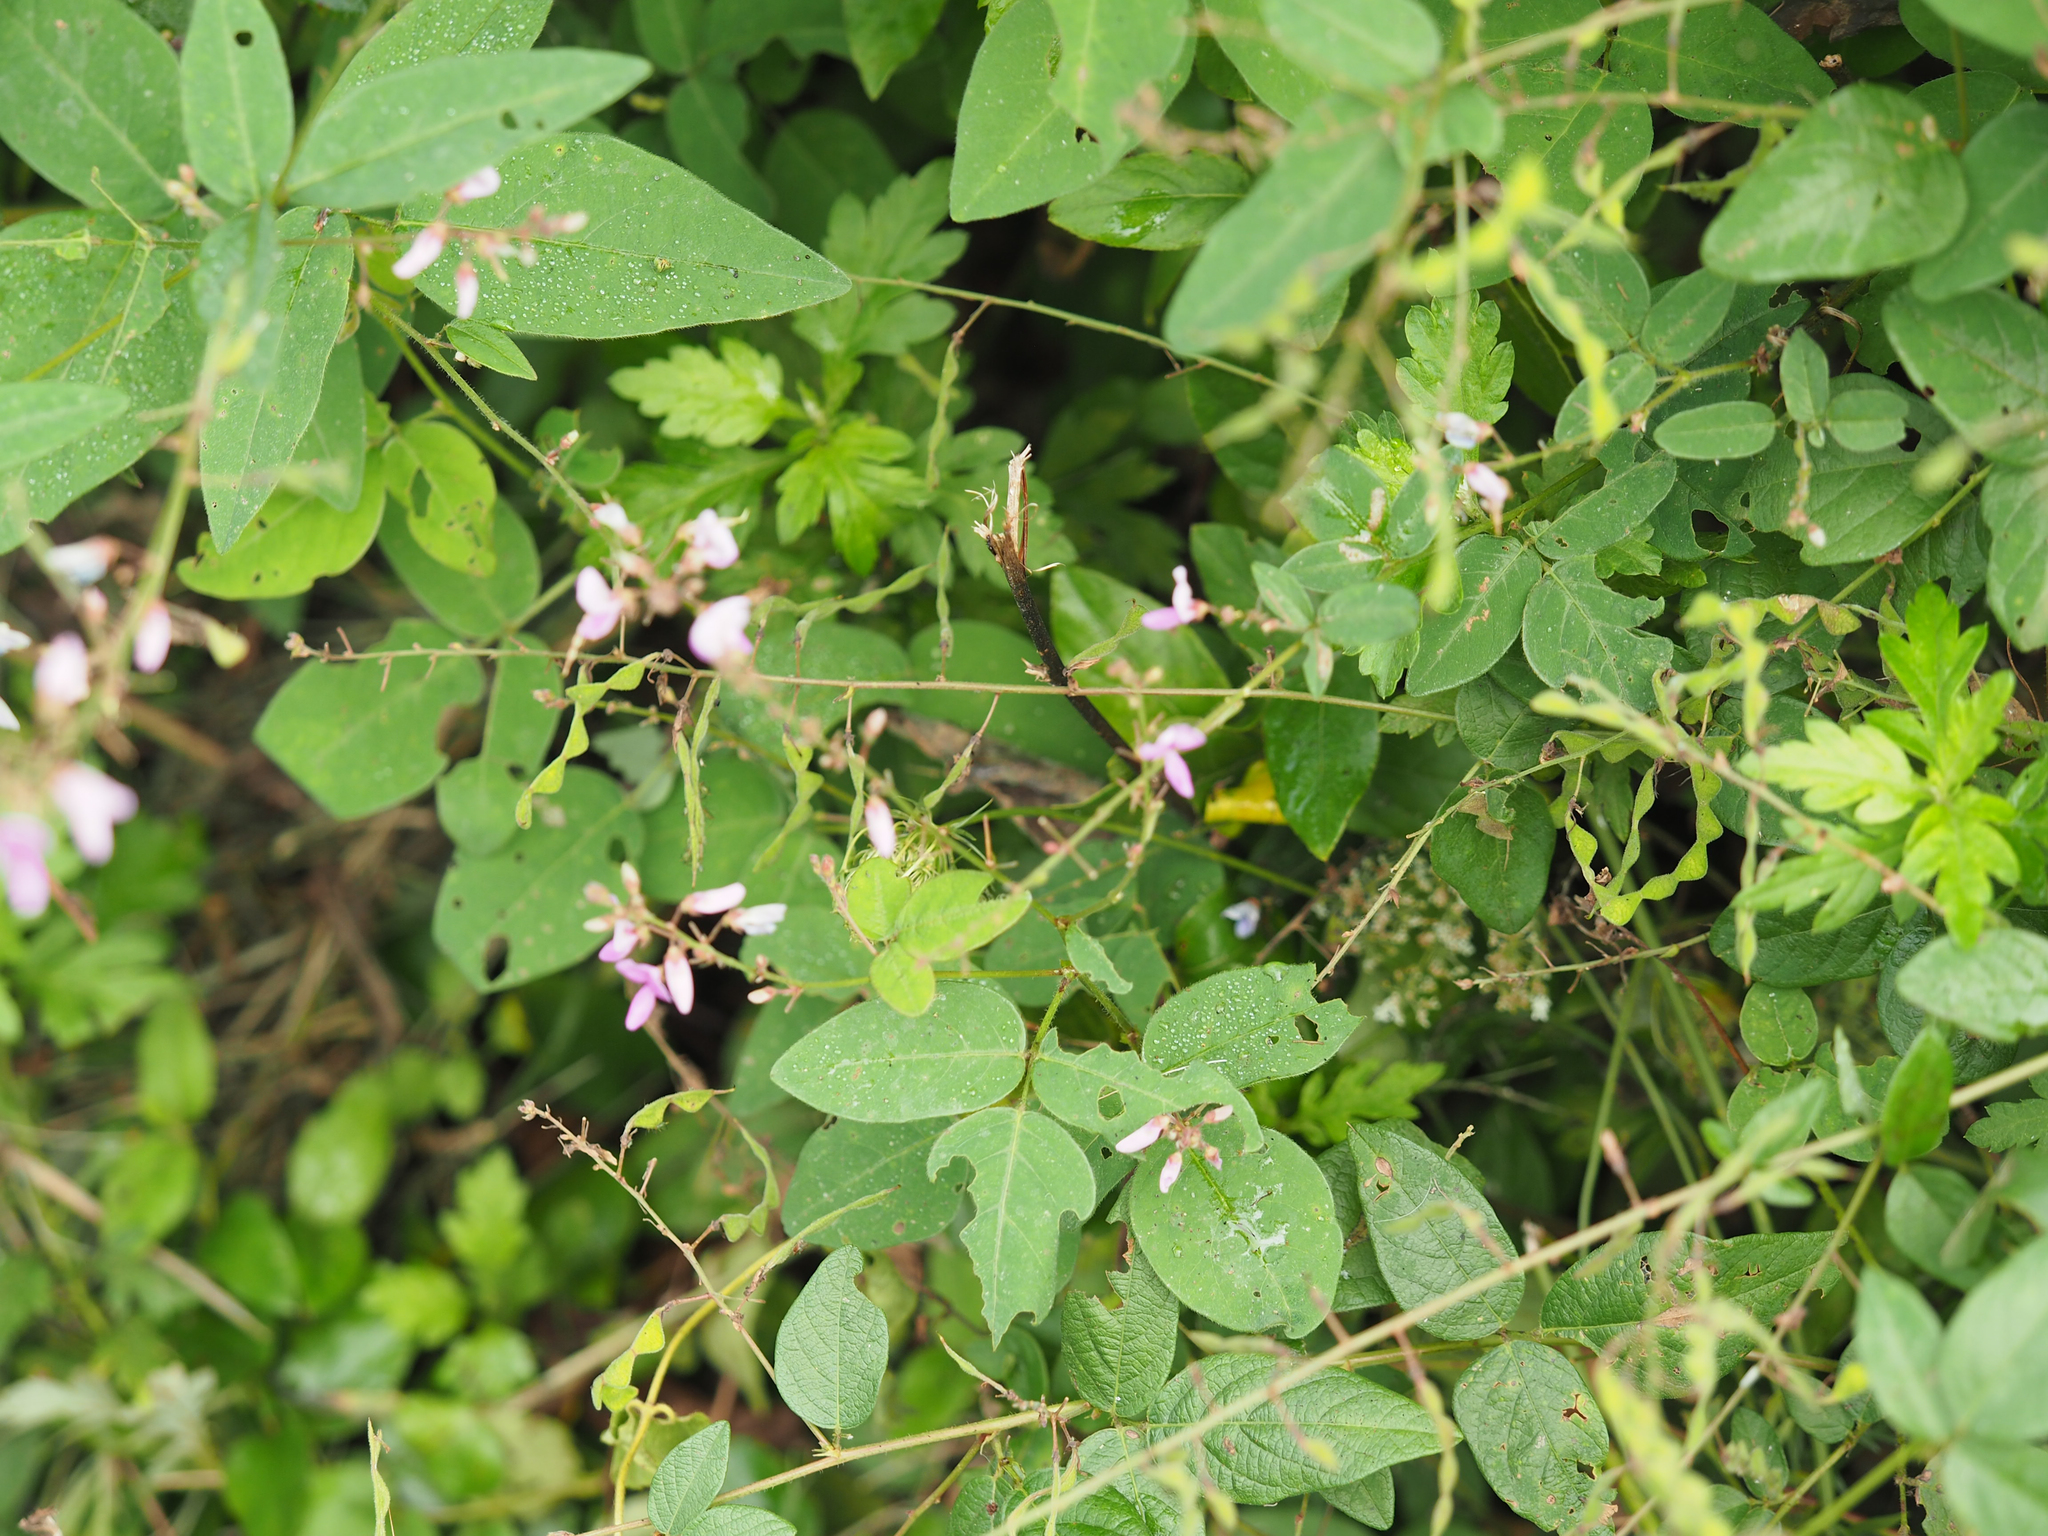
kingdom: Plantae
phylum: Tracheophyta
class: Magnoliopsida
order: Fabales
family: Fabaceae
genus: Desmodium
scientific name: Desmodium glabellum
